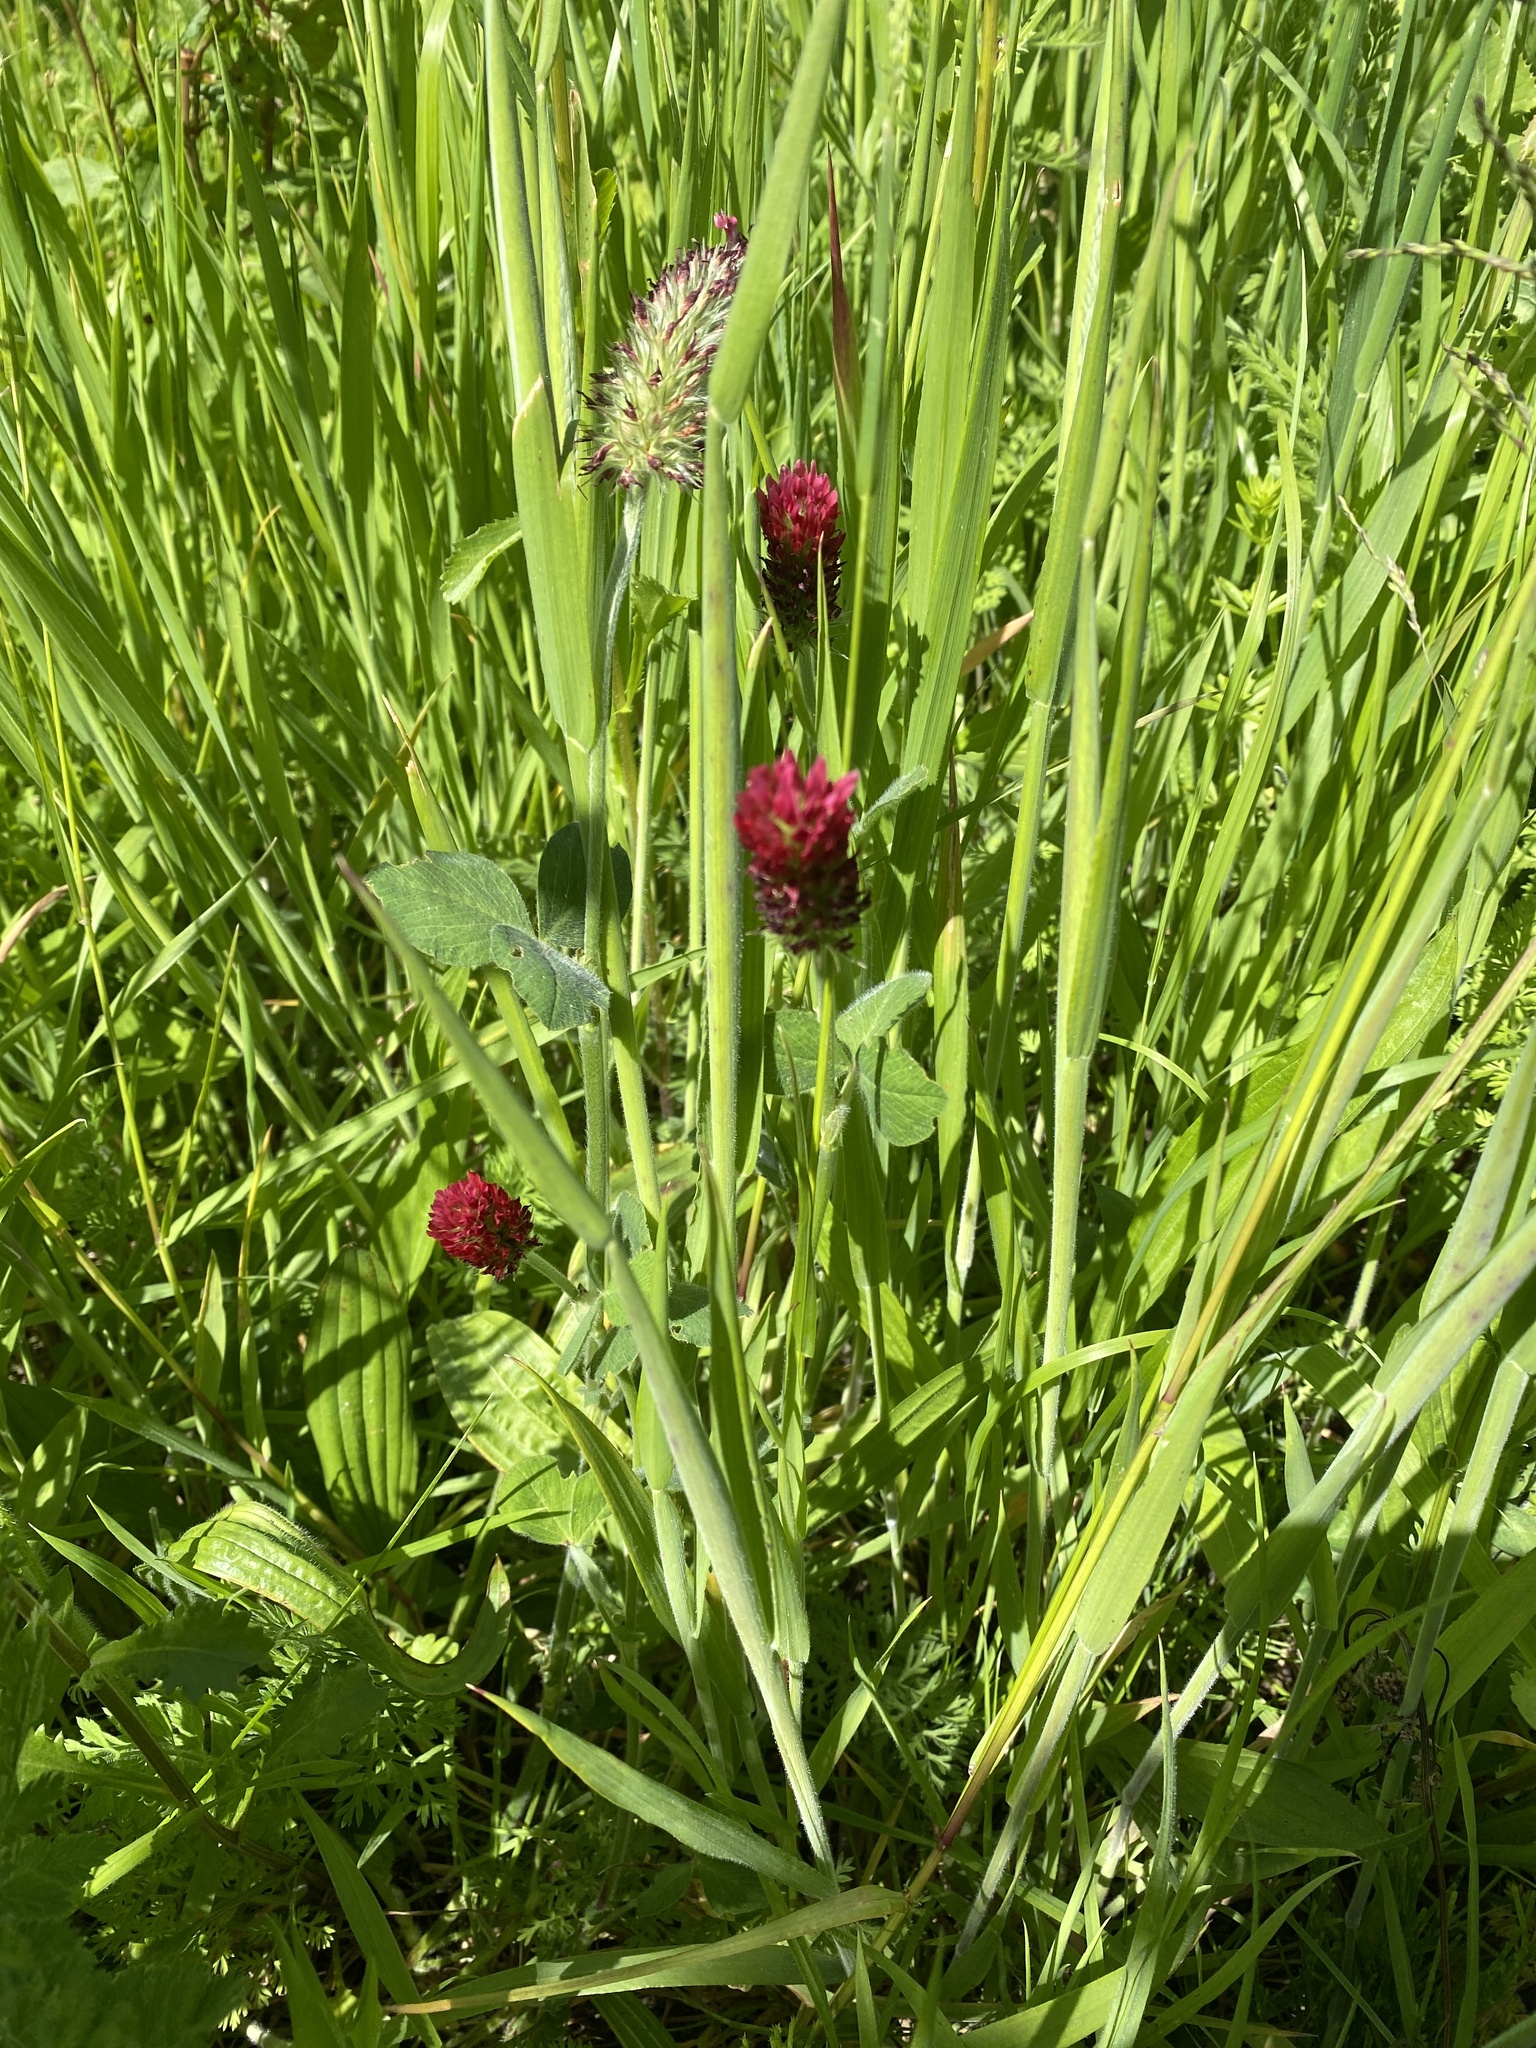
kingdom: Plantae
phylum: Tracheophyta
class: Magnoliopsida
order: Fabales
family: Fabaceae
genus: Trifolium
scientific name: Trifolium incarnatum
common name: Crimson clover
